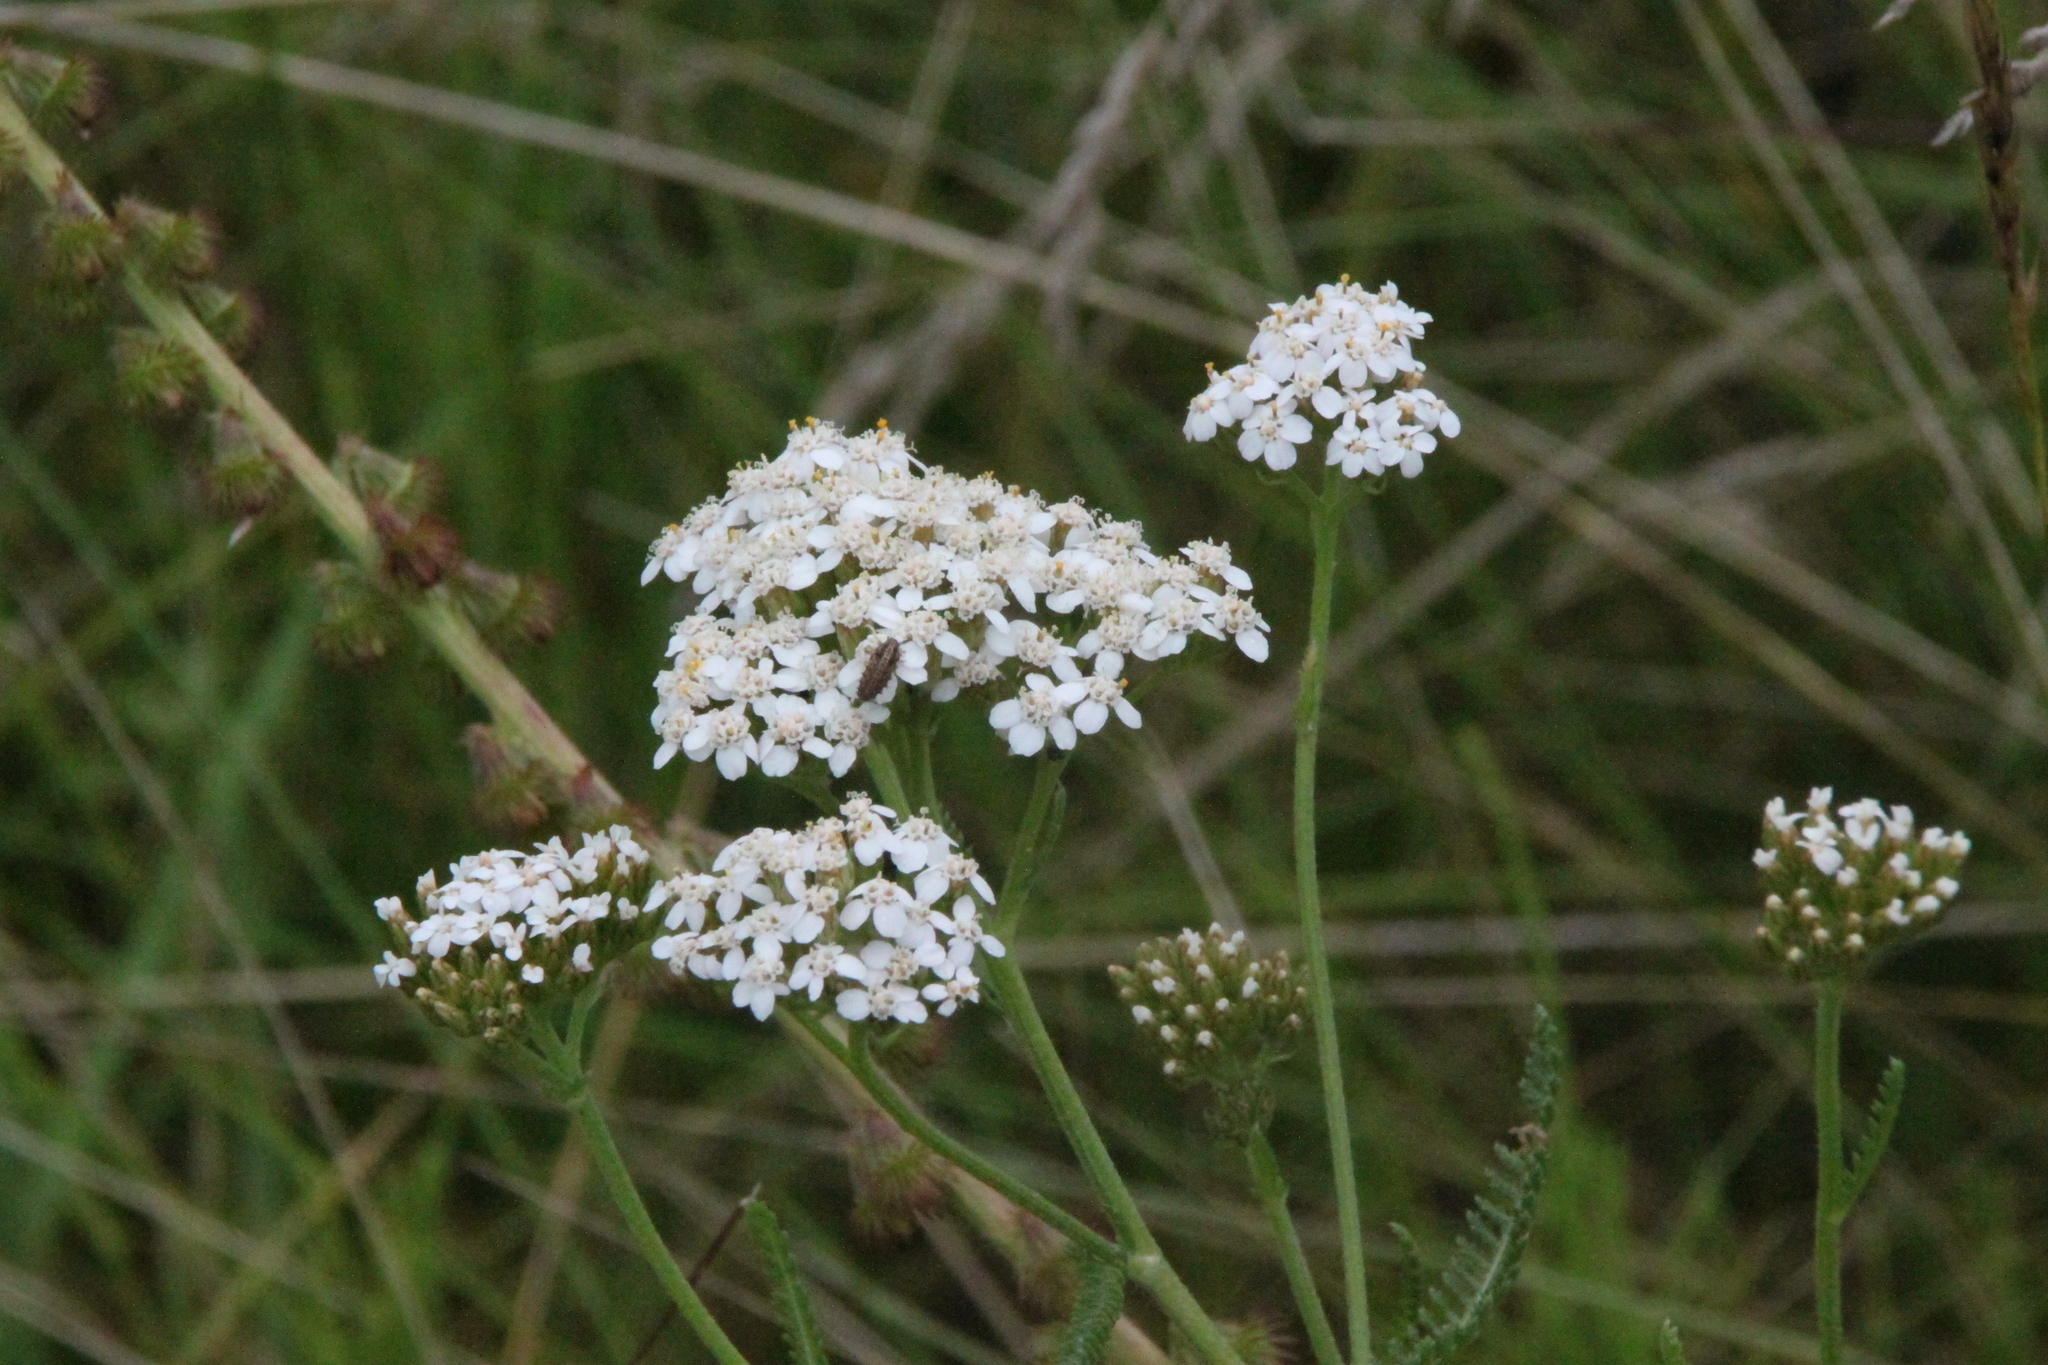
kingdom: Plantae
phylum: Tracheophyta
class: Magnoliopsida
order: Asterales
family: Asteraceae
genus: Achillea
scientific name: Achillea millefolium
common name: Yarrow
